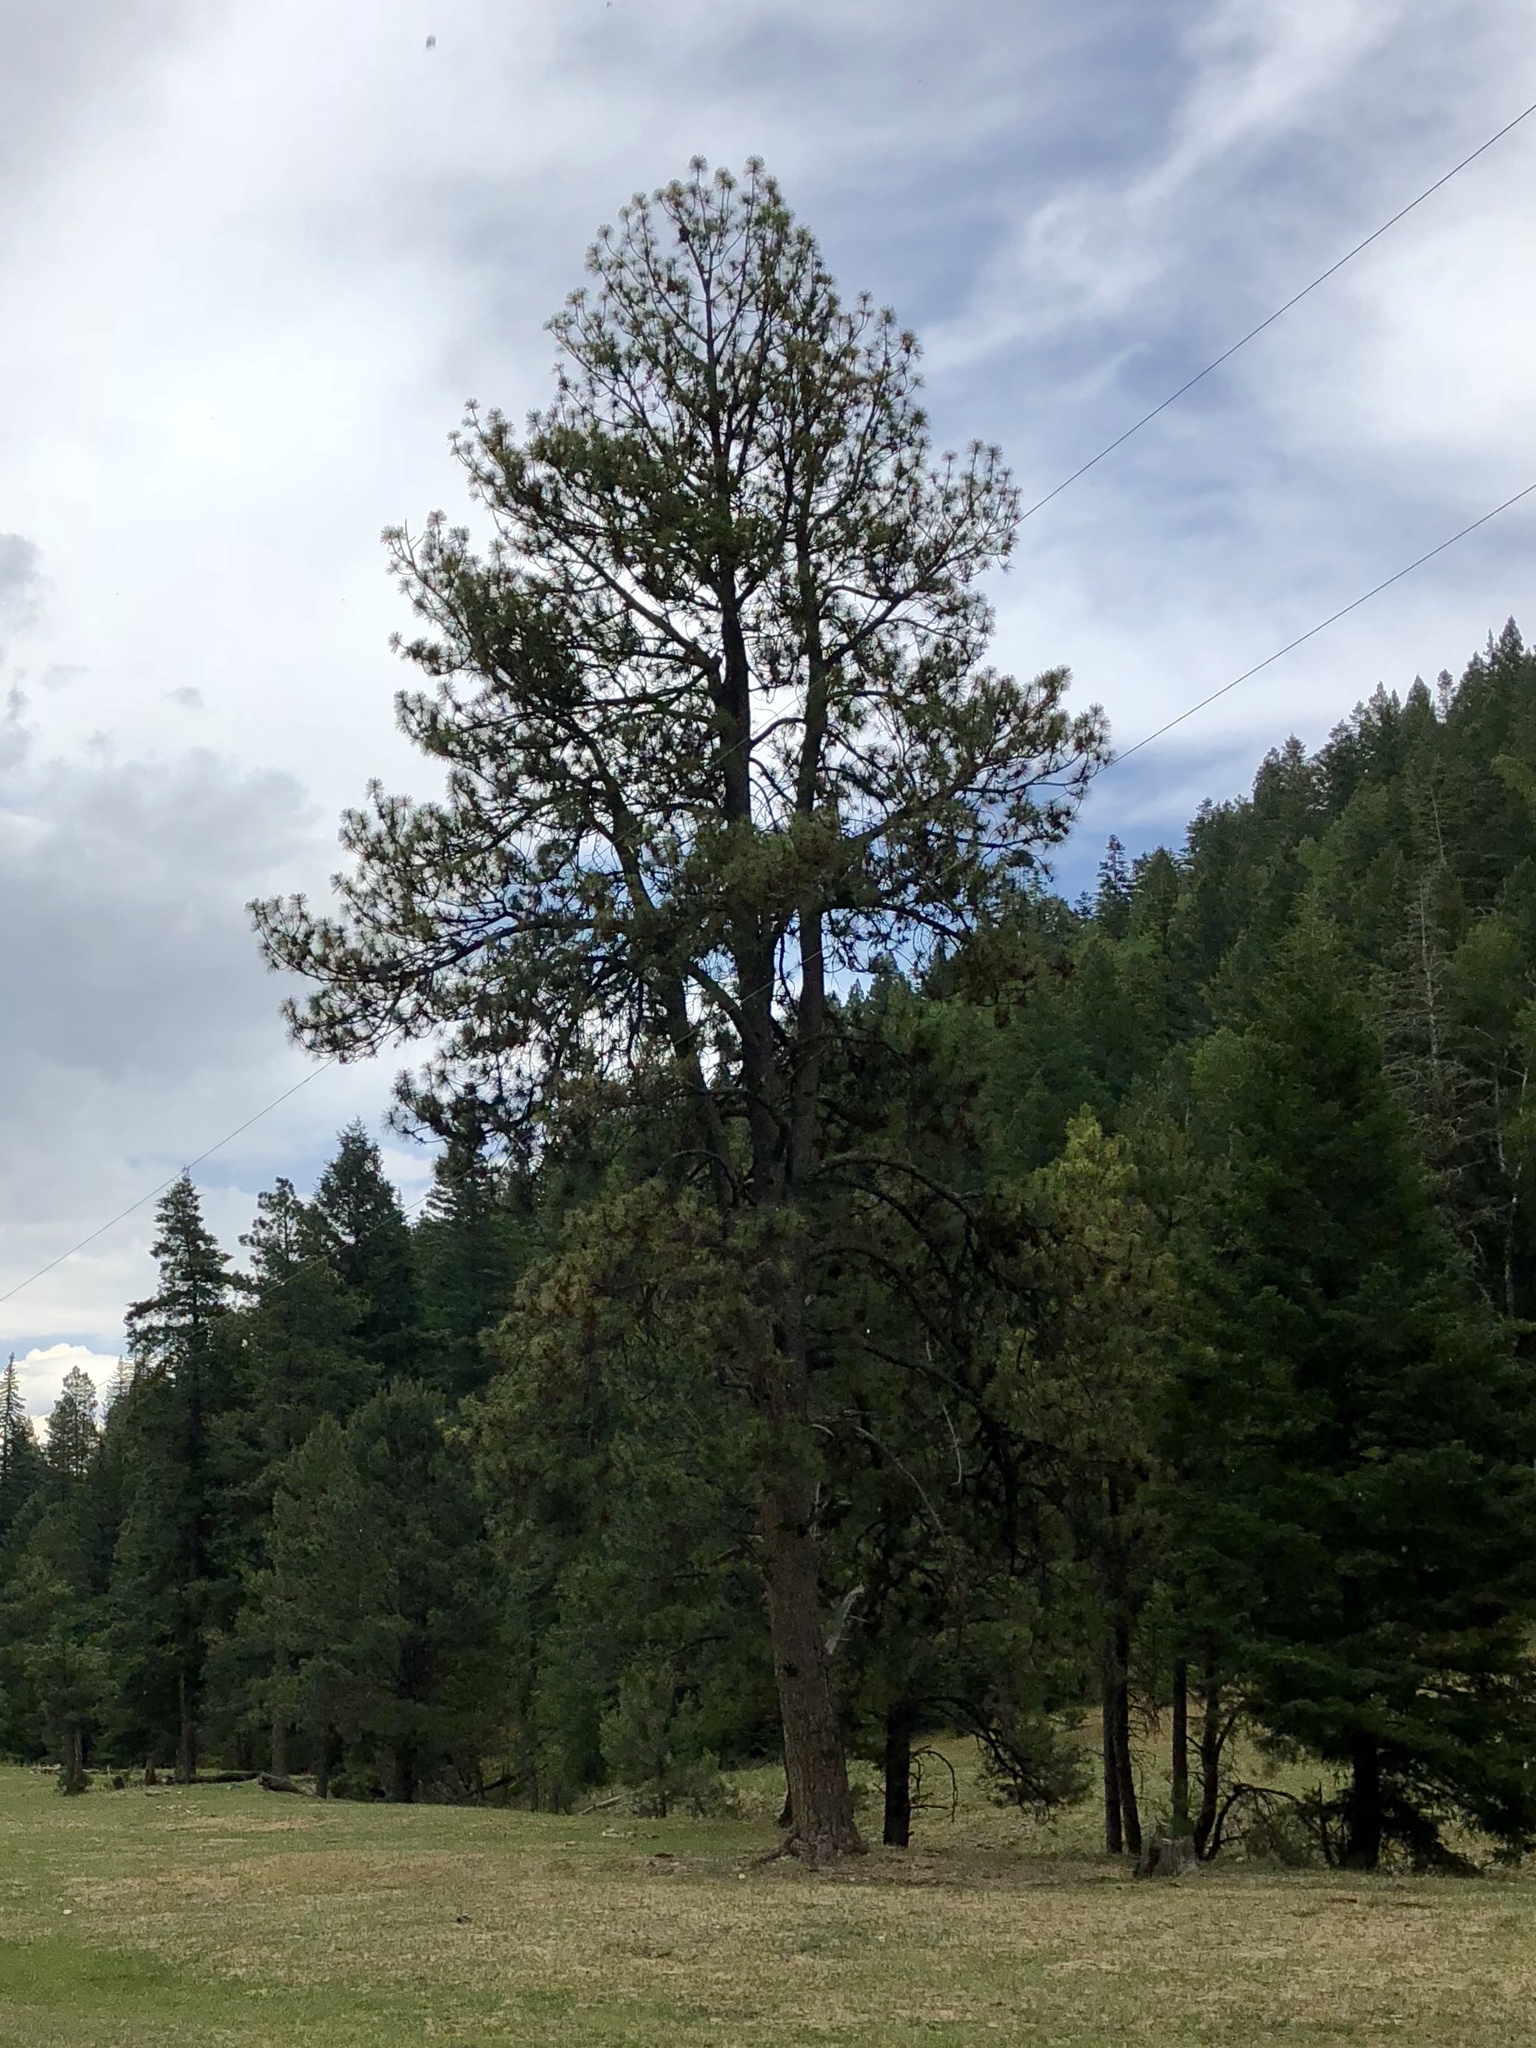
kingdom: Plantae
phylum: Tracheophyta
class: Pinopsida
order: Pinales
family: Pinaceae
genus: Pinus
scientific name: Pinus ponderosa
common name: Western yellow-pine
